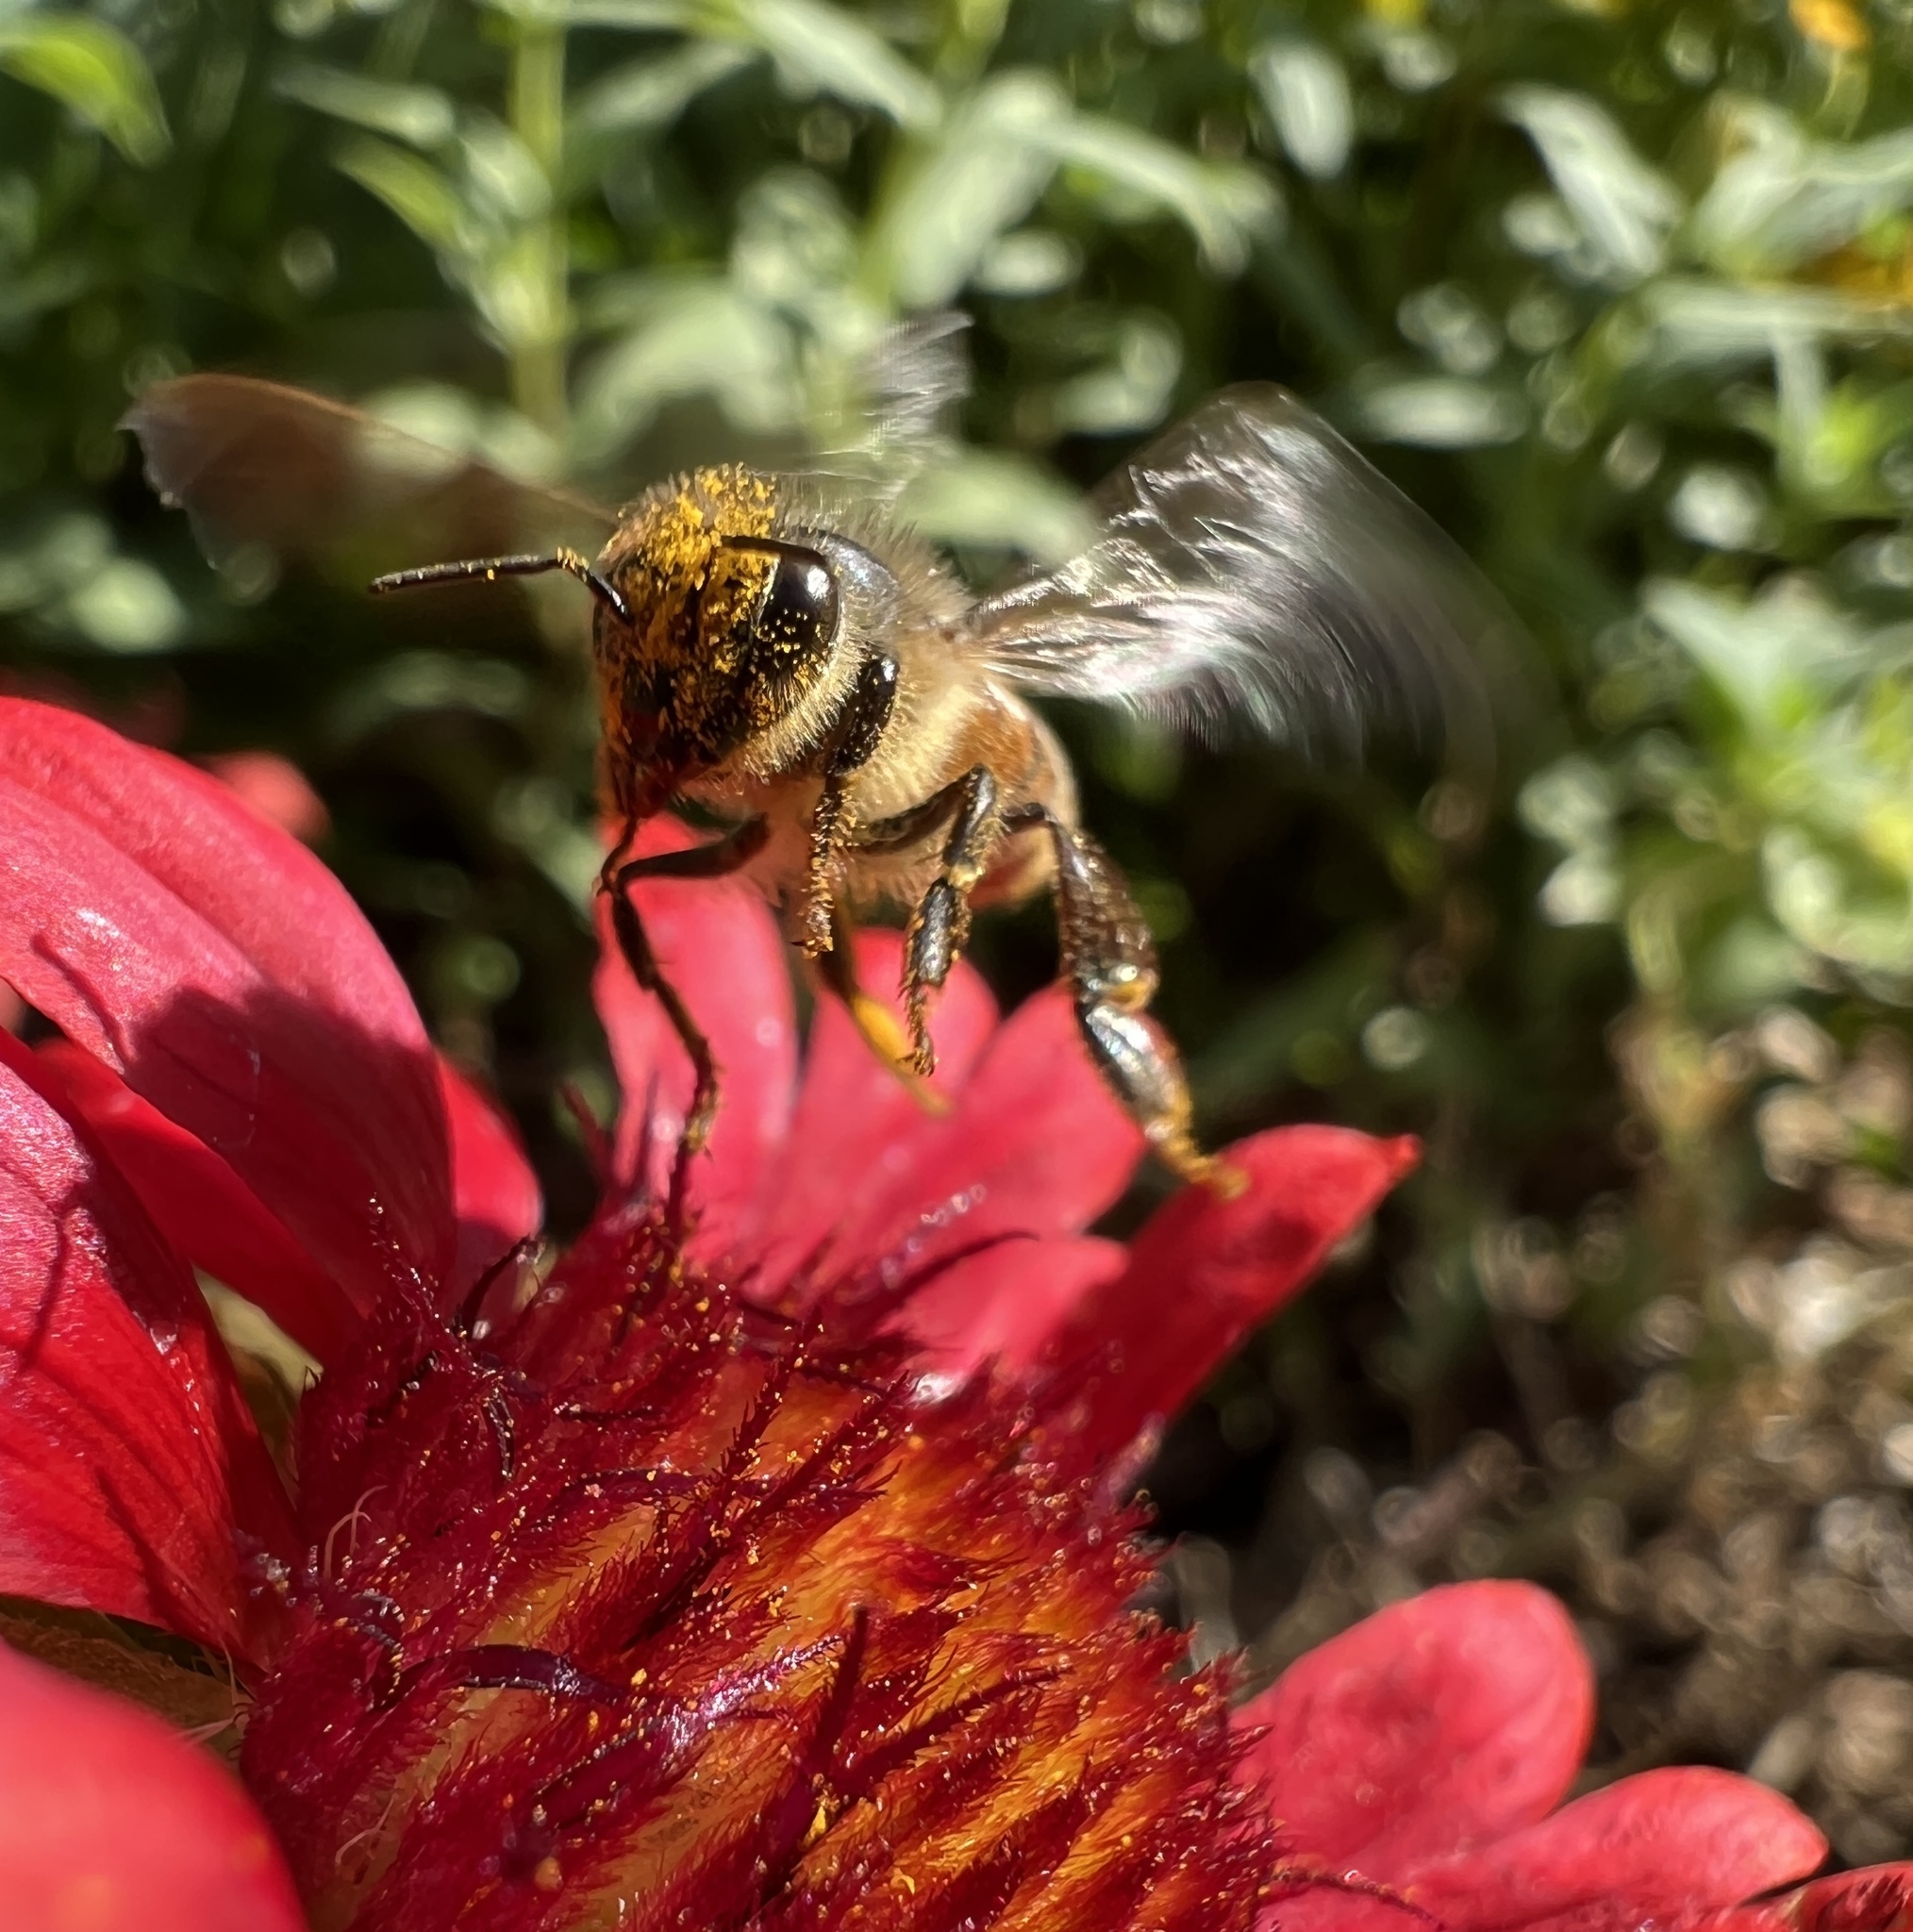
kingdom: Animalia
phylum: Arthropoda
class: Insecta
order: Hymenoptera
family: Apidae
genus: Apis
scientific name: Apis mellifera
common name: Honey bee
